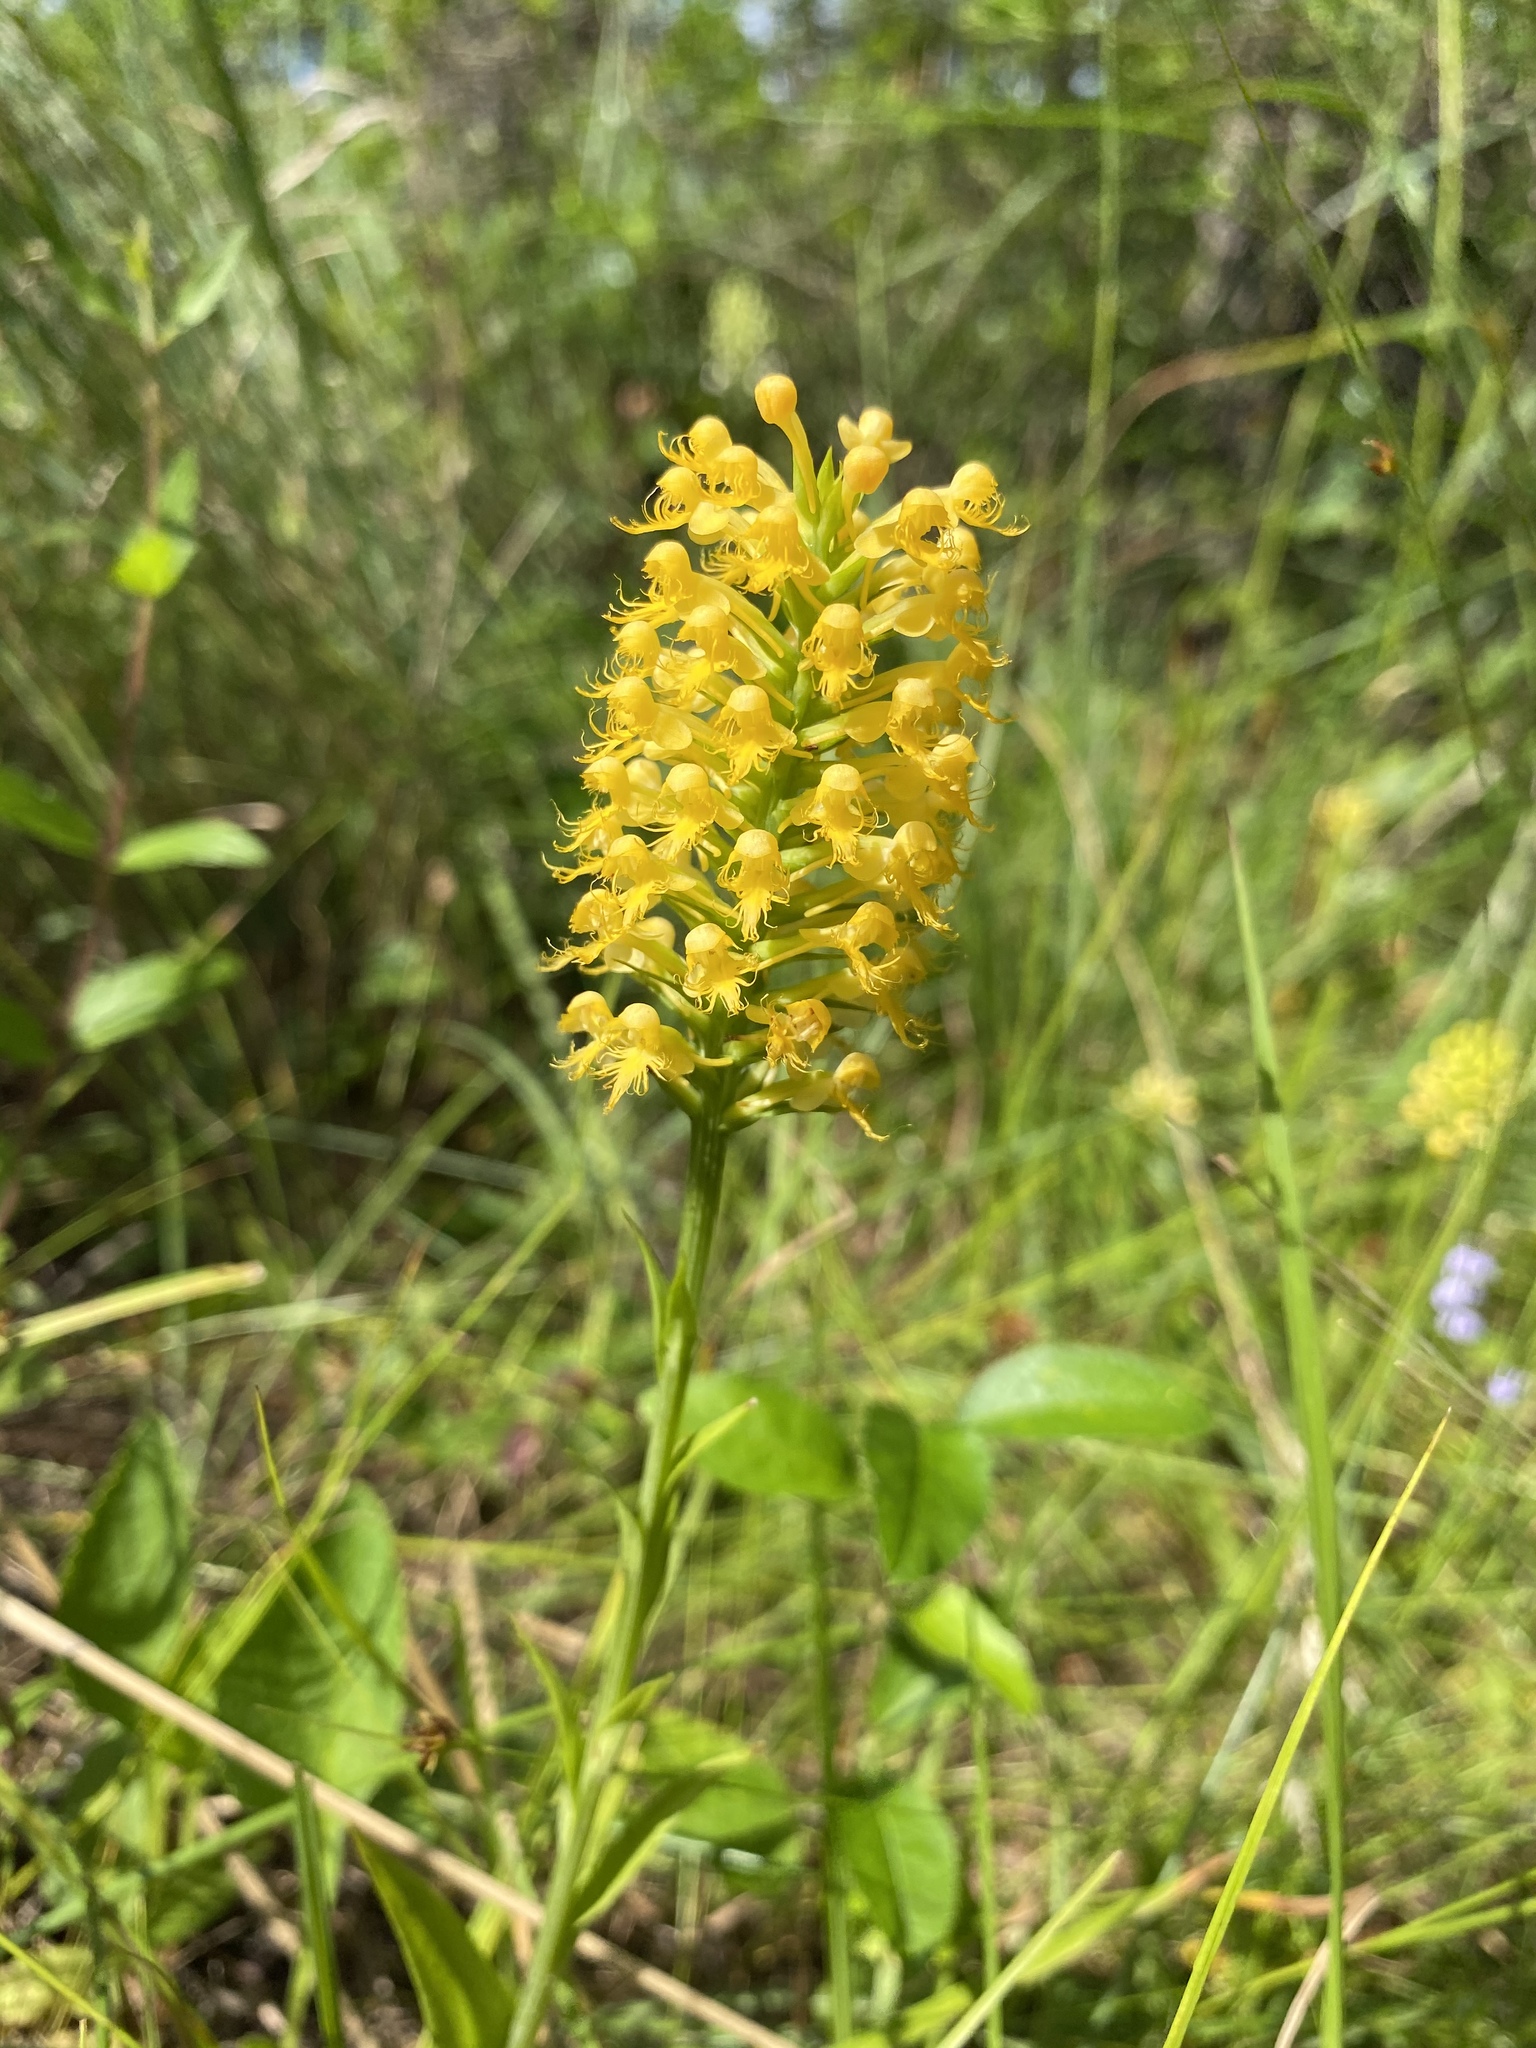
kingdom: Plantae
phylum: Tracheophyta
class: Liliopsida
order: Asparagales
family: Orchidaceae
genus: Platanthera
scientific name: Platanthera cristata
